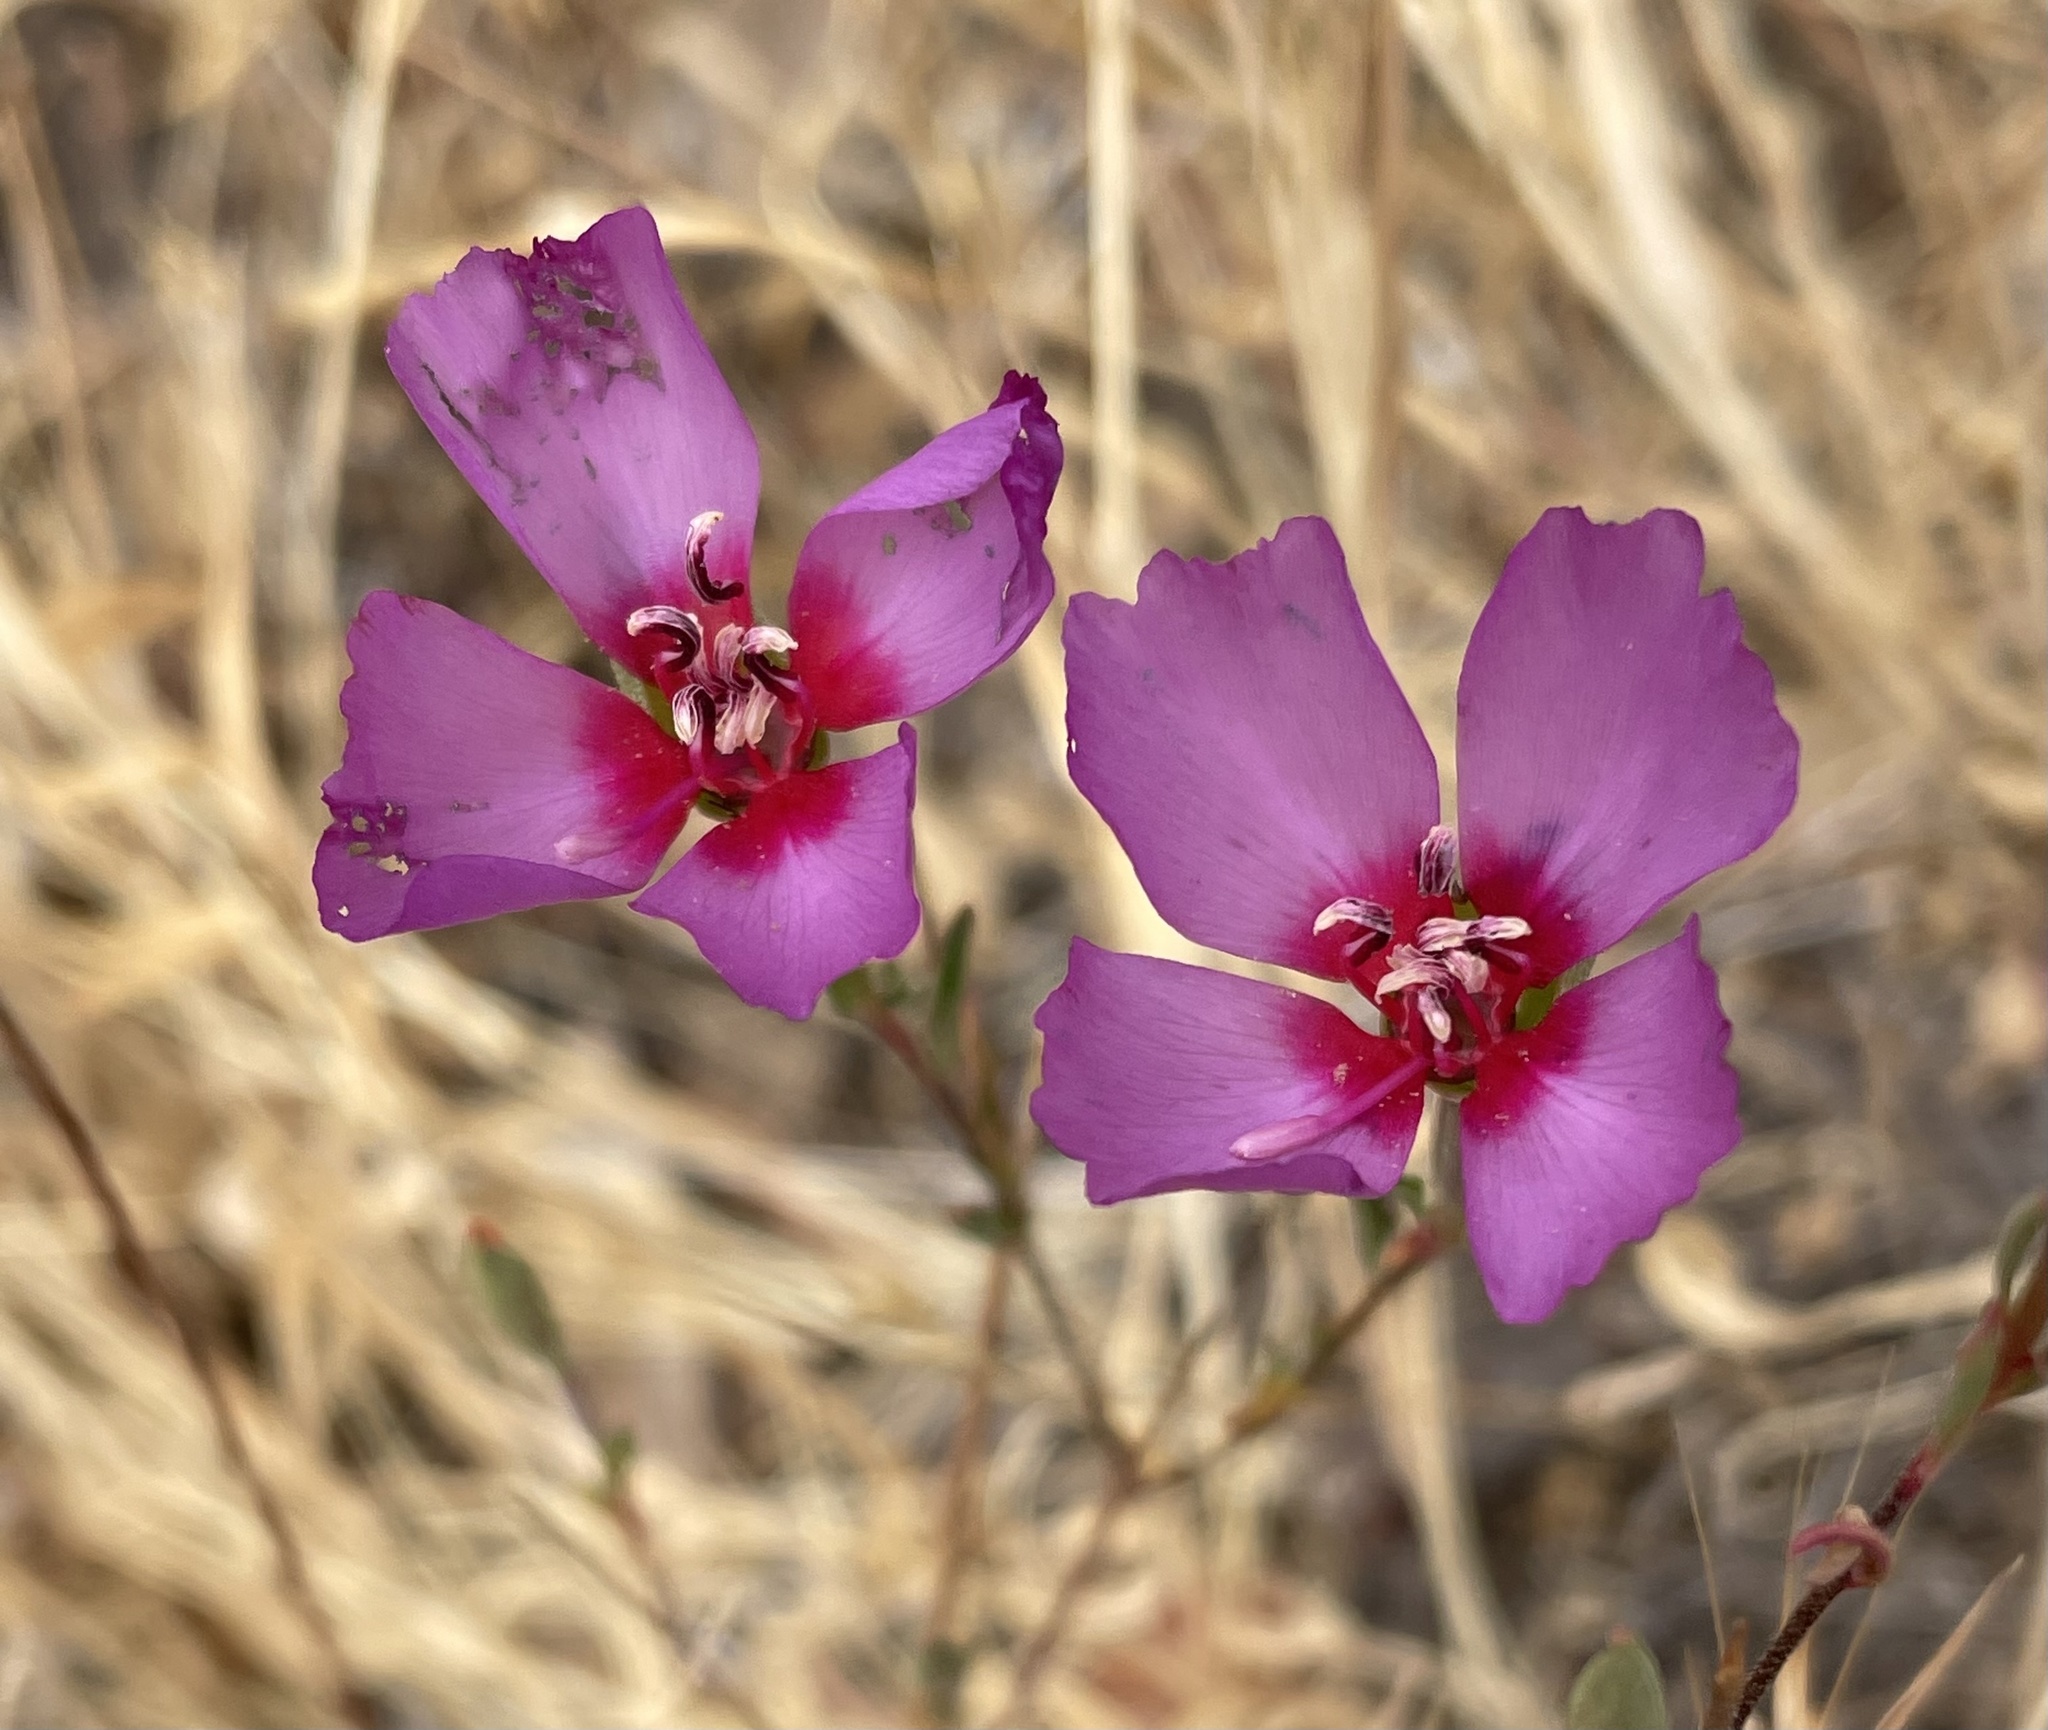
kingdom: Plantae
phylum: Tracheophyta
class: Magnoliopsida
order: Myrtales
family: Onagraceae
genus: Clarkia
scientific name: Clarkia rubicunda
